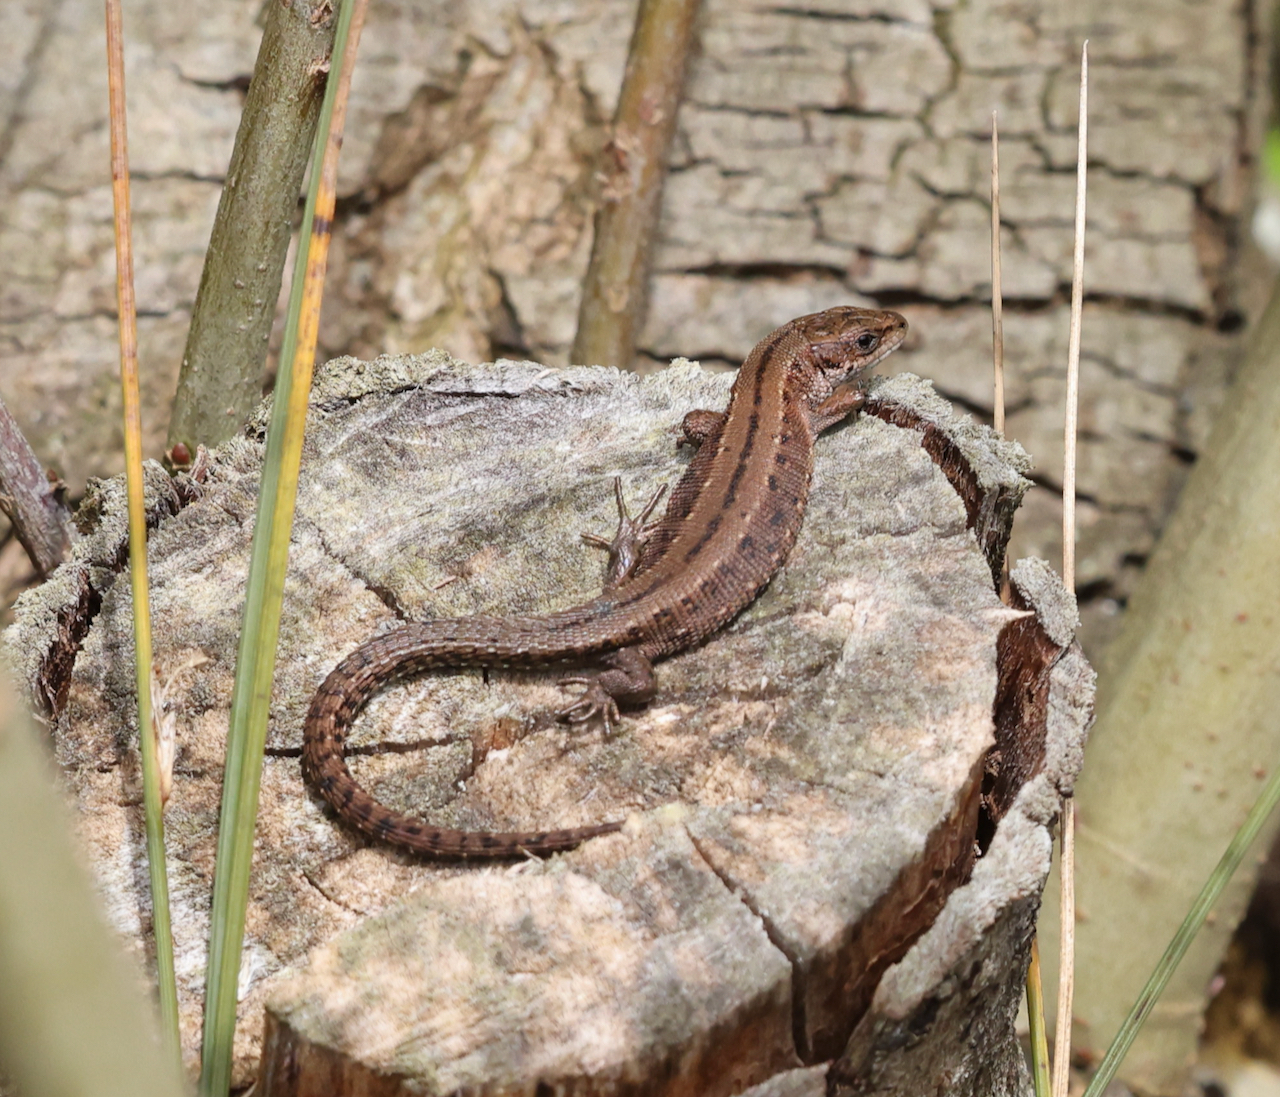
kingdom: Animalia
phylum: Chordata
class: Squamata
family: Lacertidae
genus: Zootoca
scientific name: Zootoca vivipara
